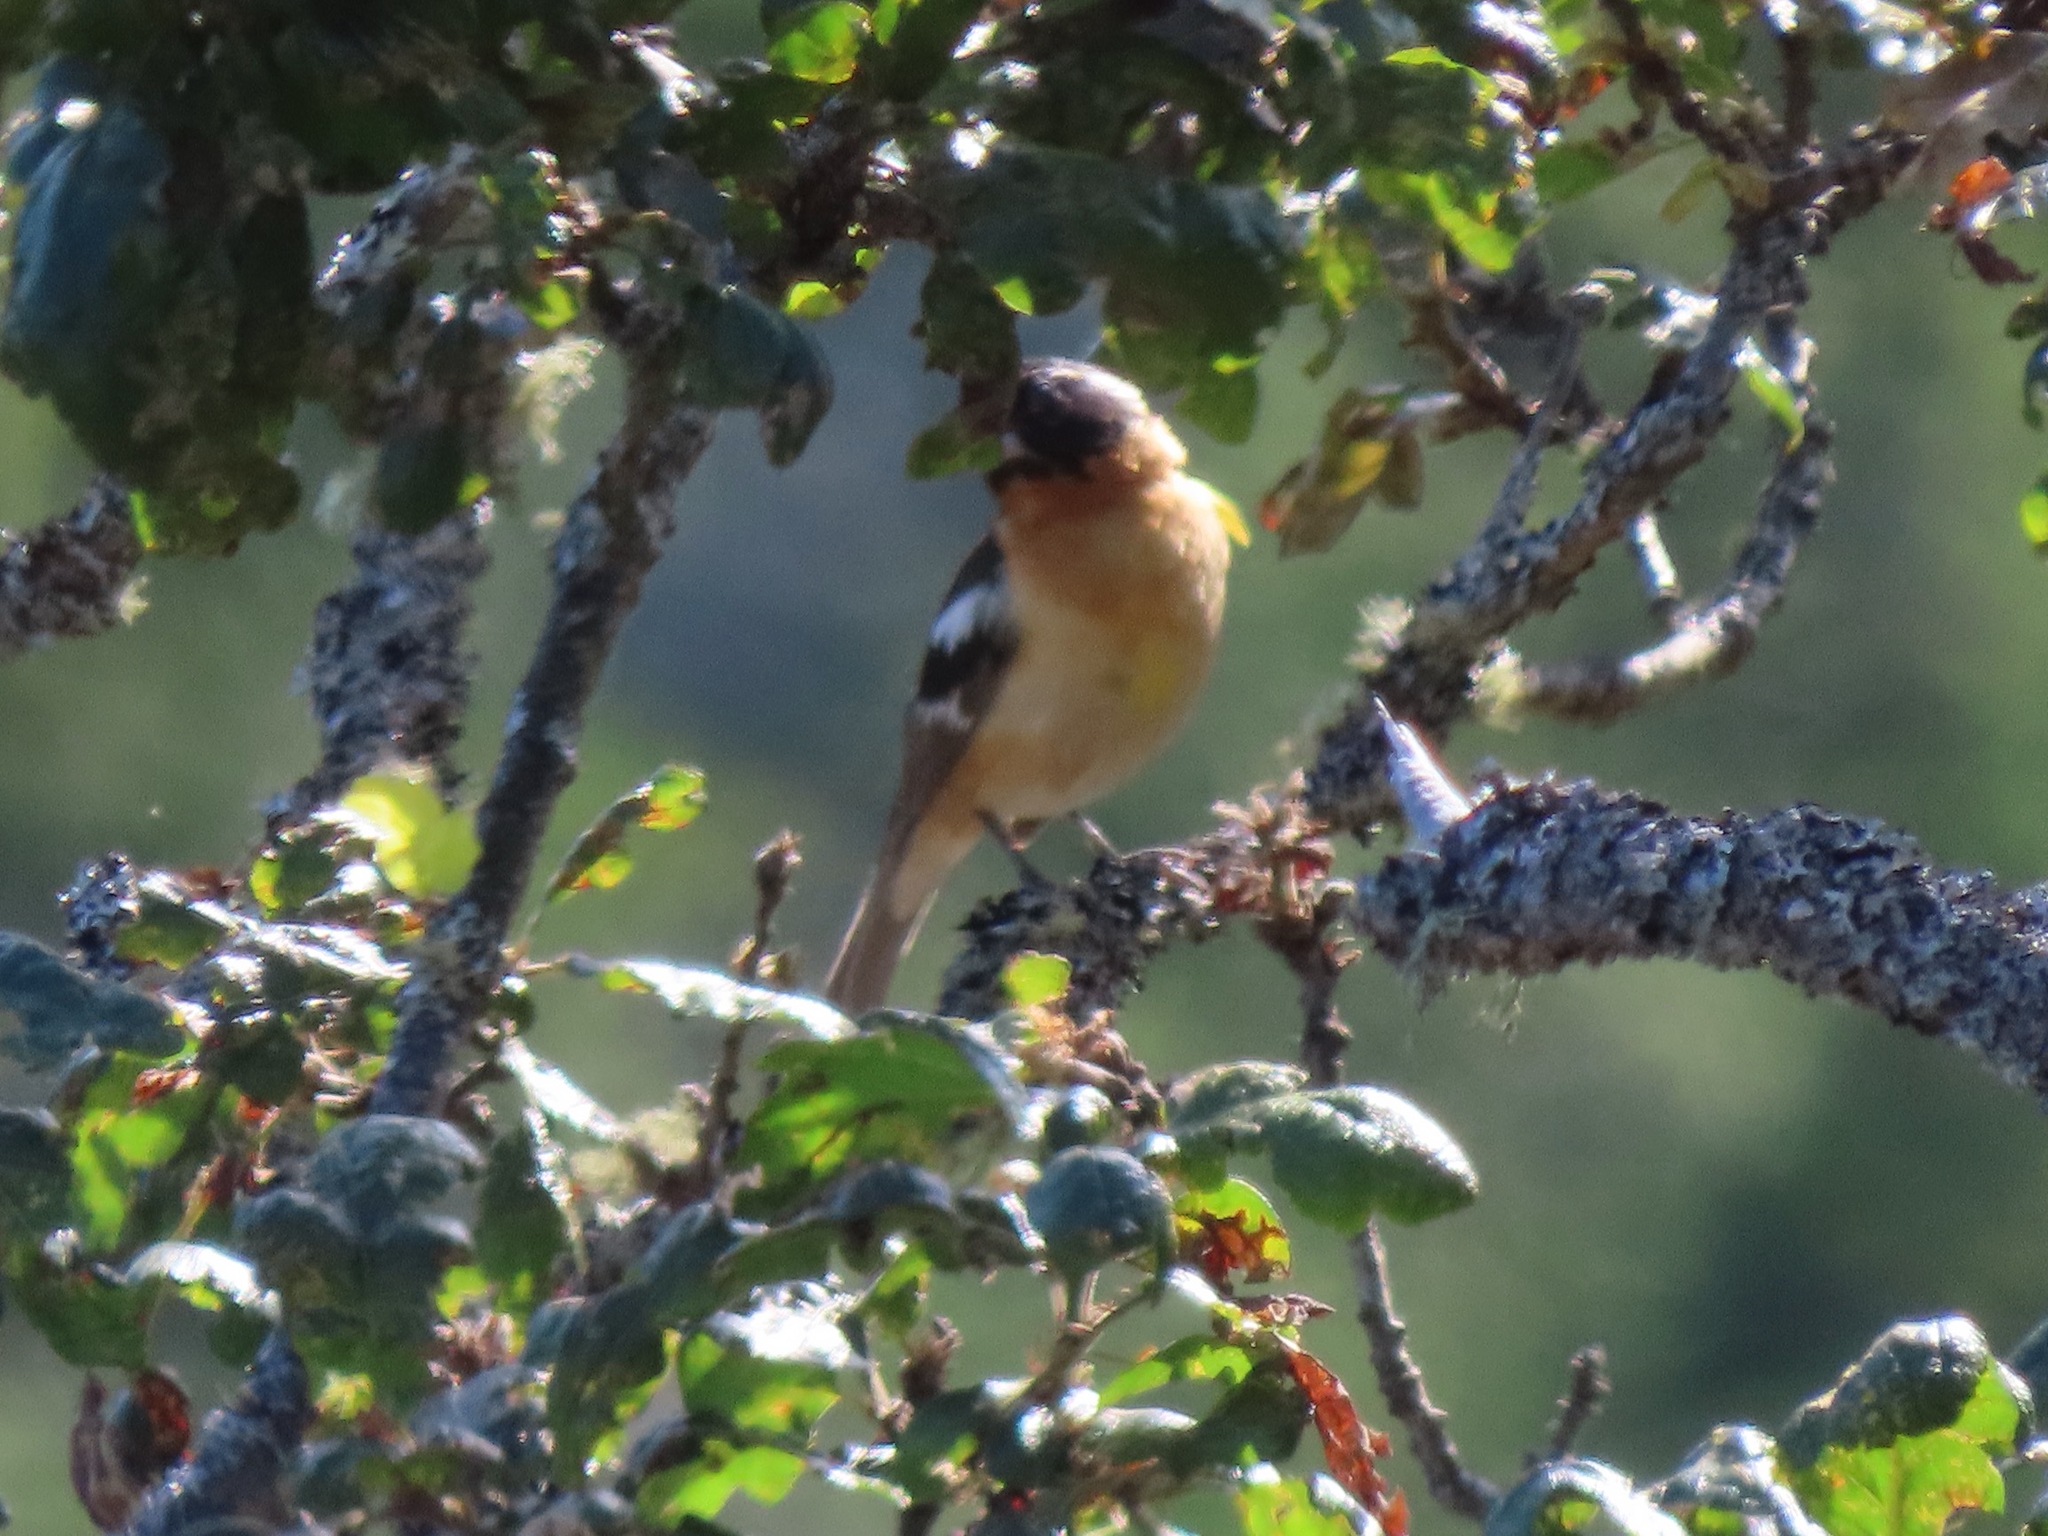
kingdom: Animalia
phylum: Chordata
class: Aves
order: Passeriformes
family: Cardinalidae
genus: Pheucticus
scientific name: Pheucticus melanocephalus
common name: Black-headed grosbeak
